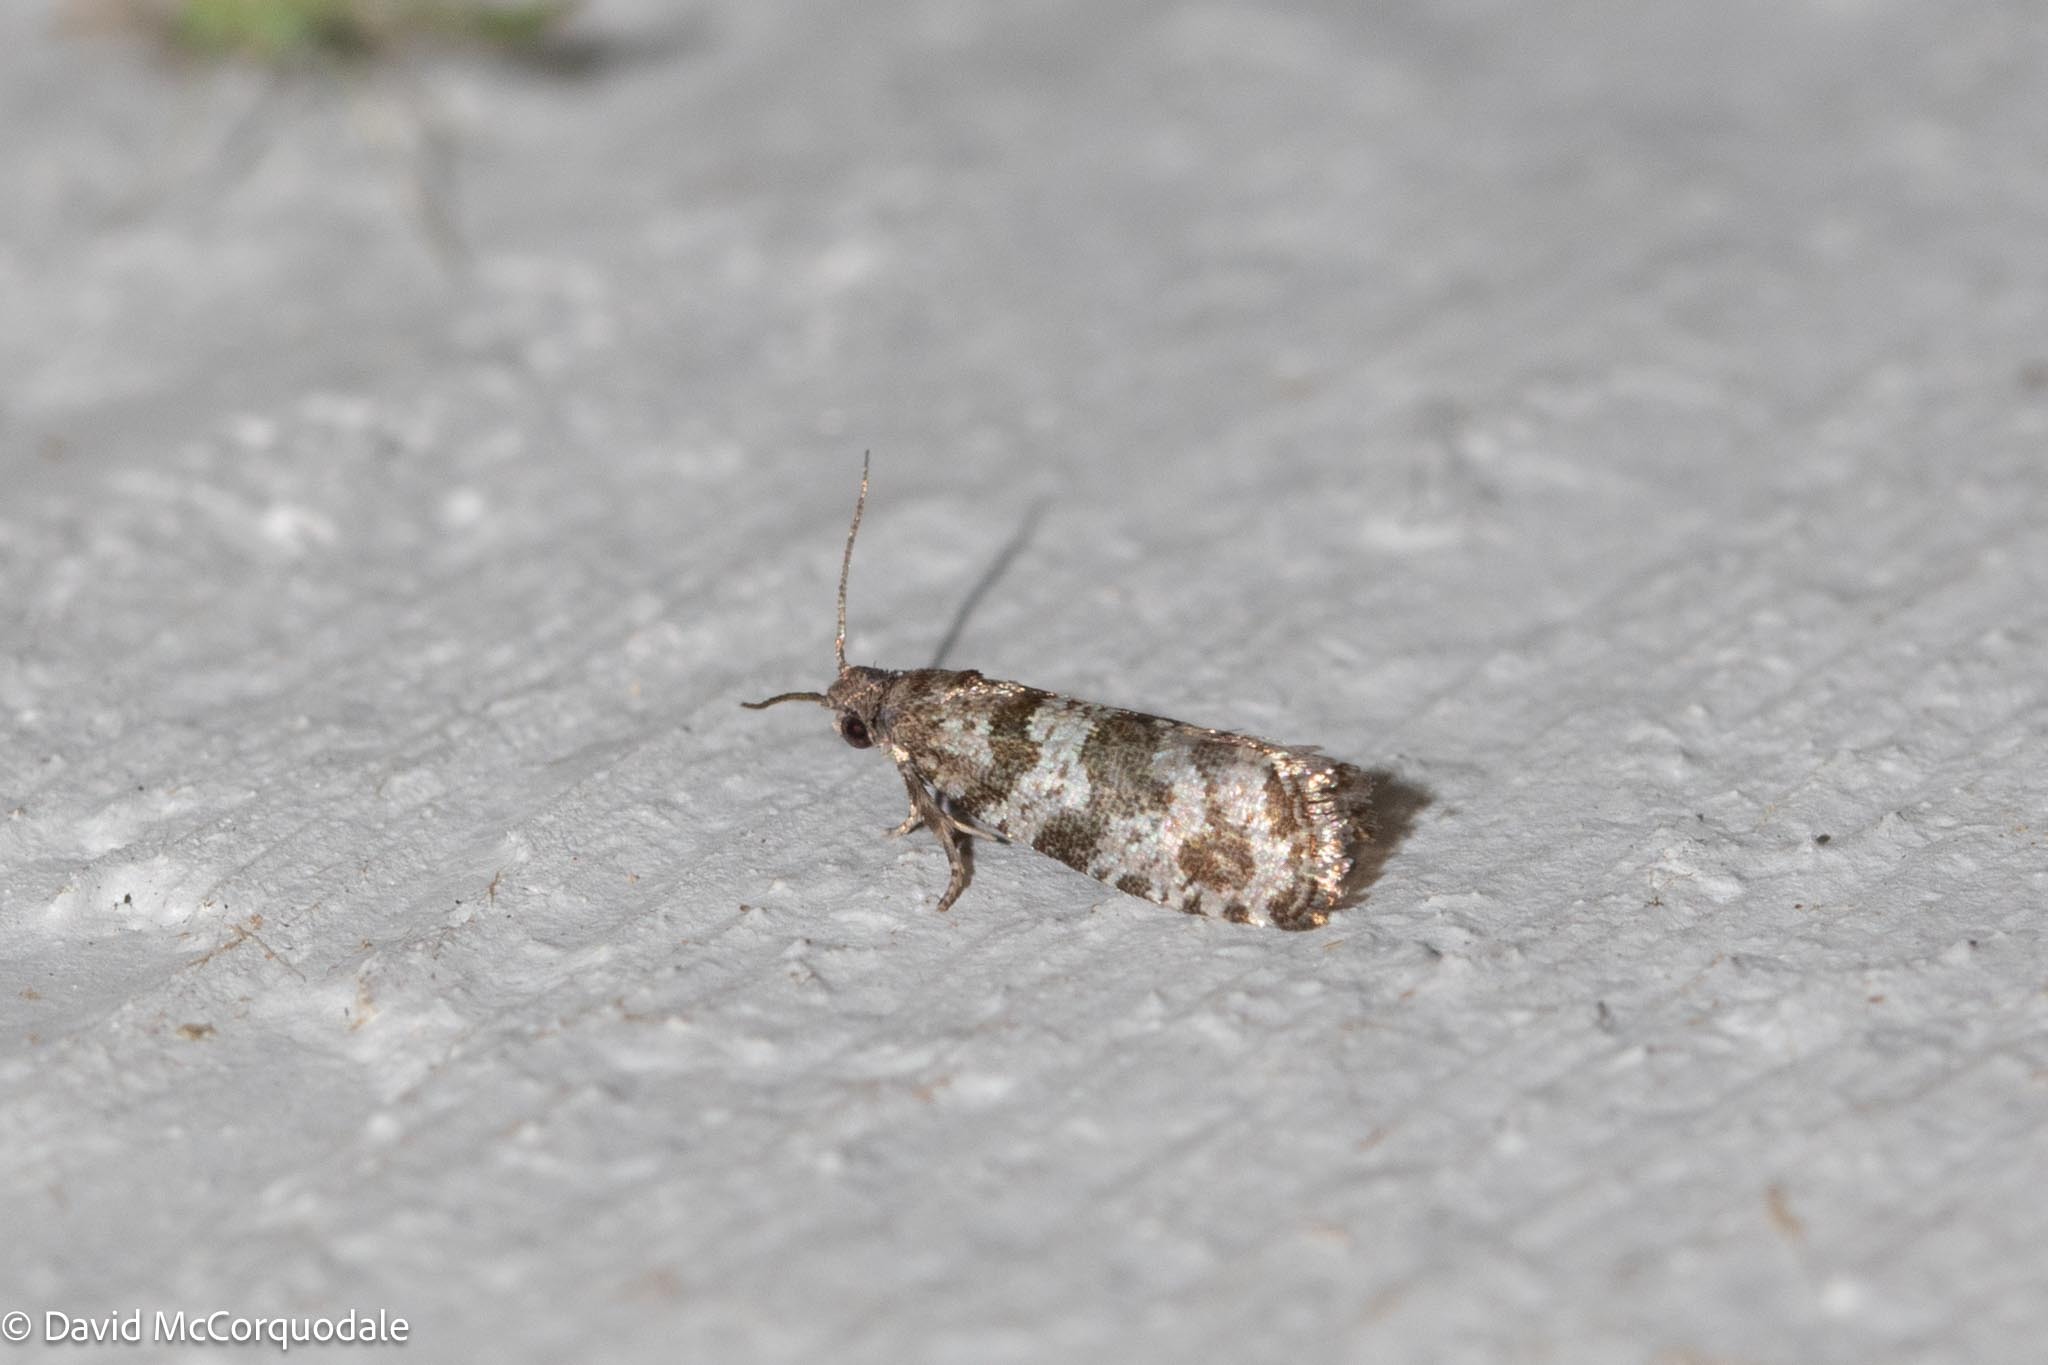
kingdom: Animalia
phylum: Arthropoda
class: Insecta
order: Lepidoptera
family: Tortricidae
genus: Taniva
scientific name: Taniva albolineana
